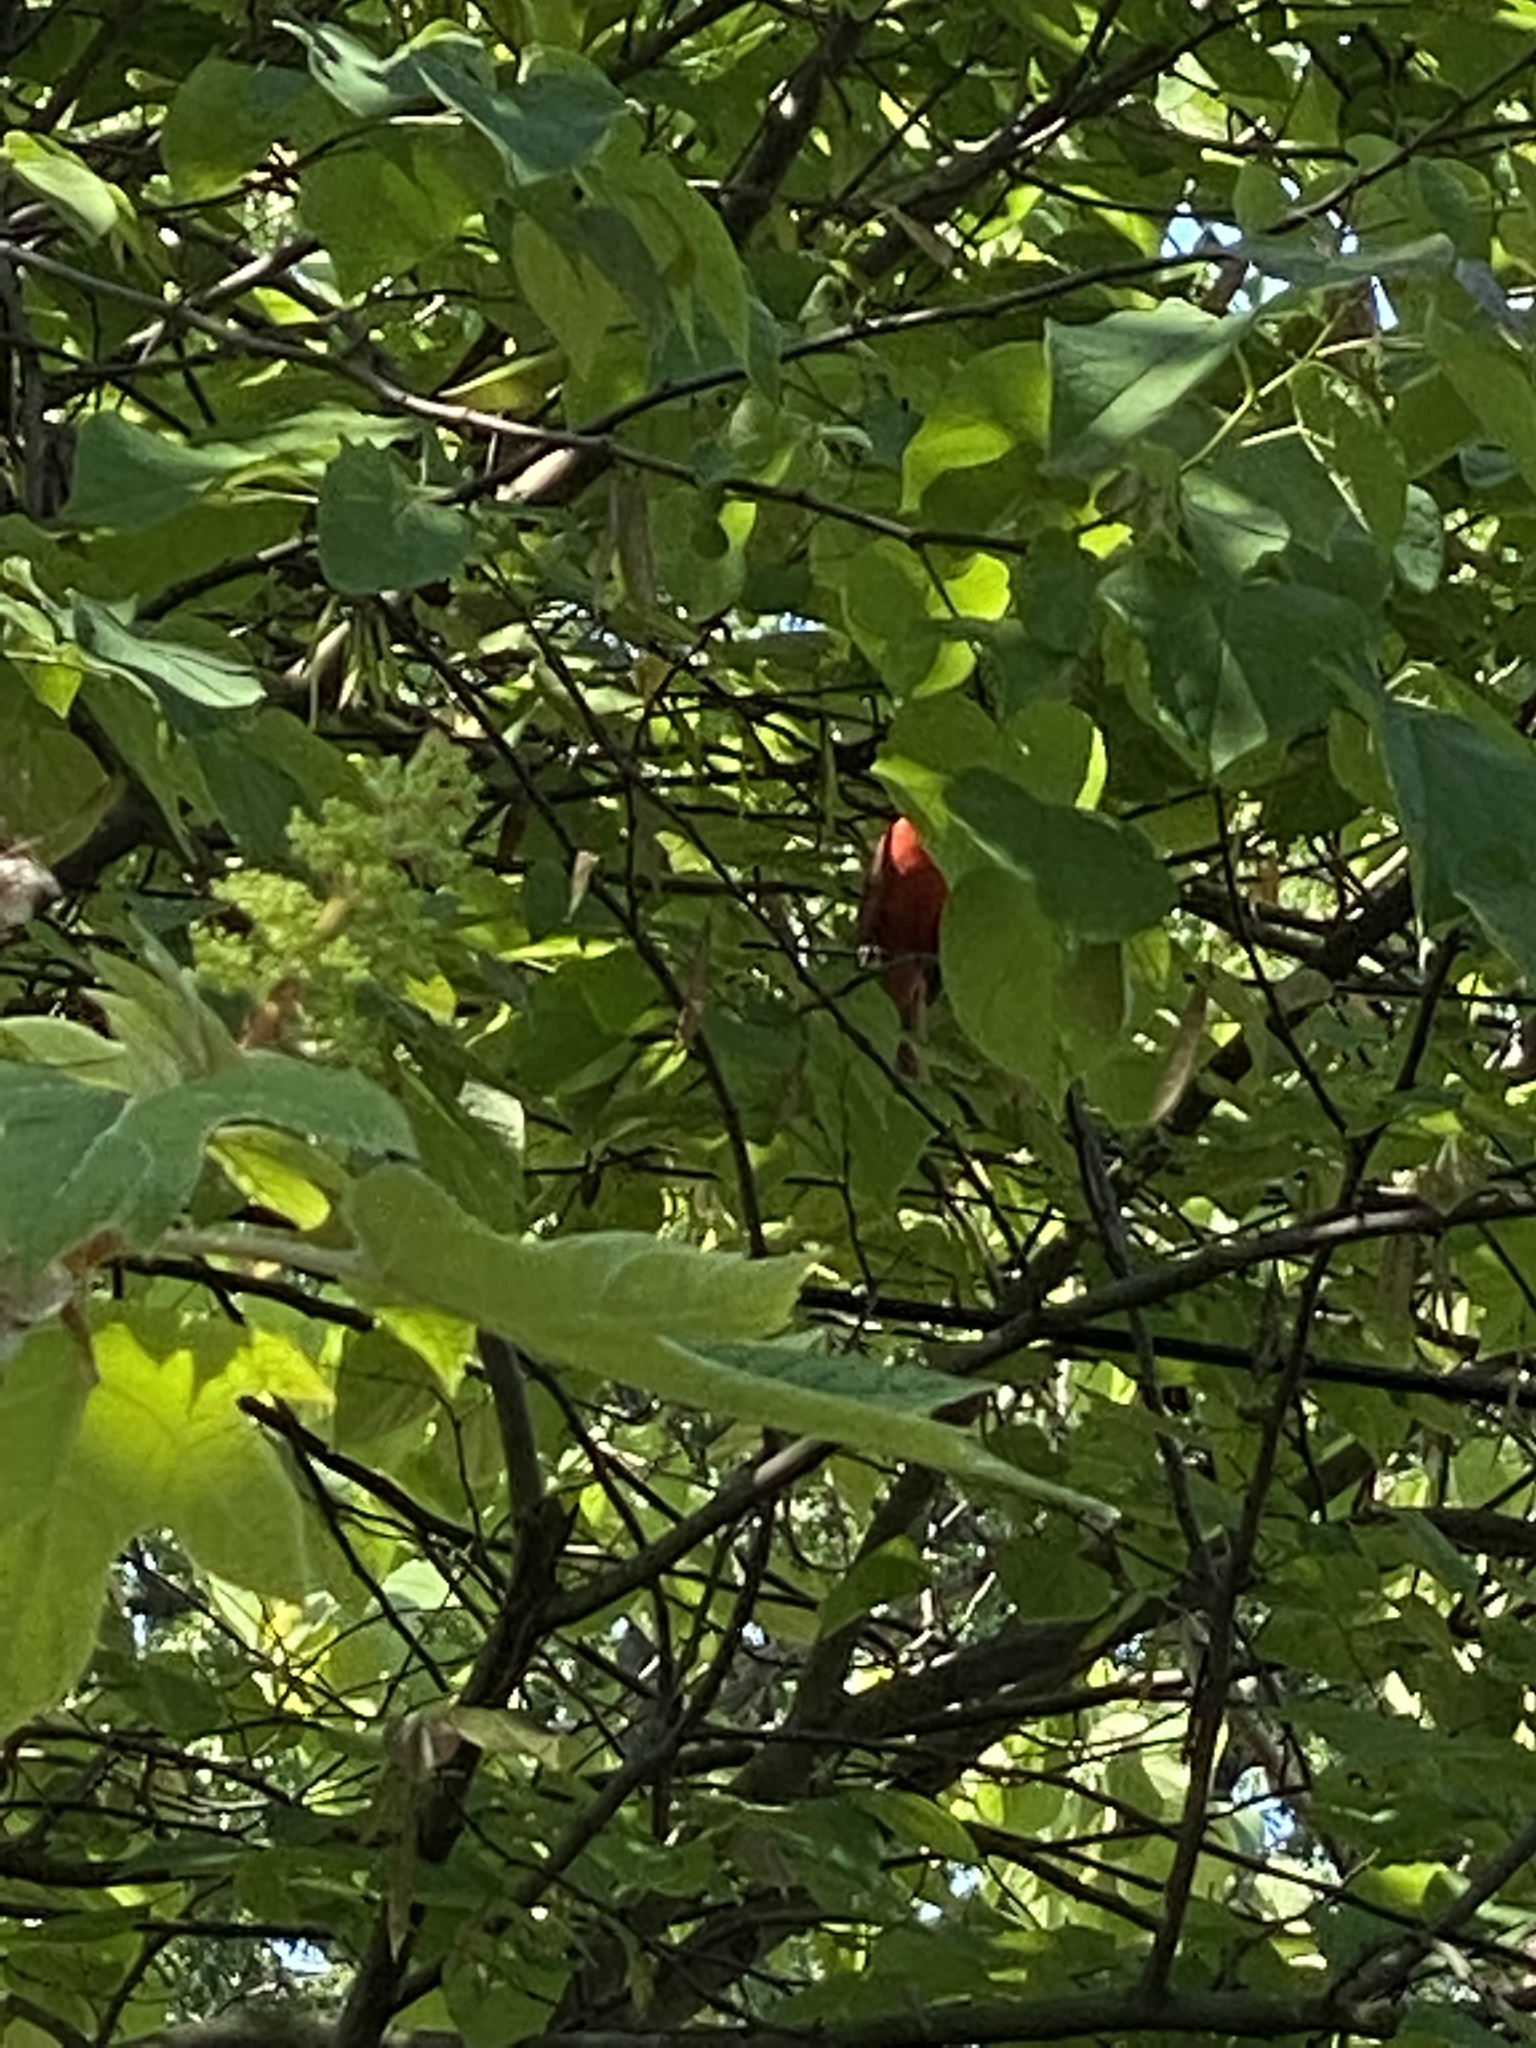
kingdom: Animalia
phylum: Chordata
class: Aves
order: Passeriformes
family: Cardinalidae
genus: Cardinalis
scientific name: Cardinalis cardinalis
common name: Northern cardinal
